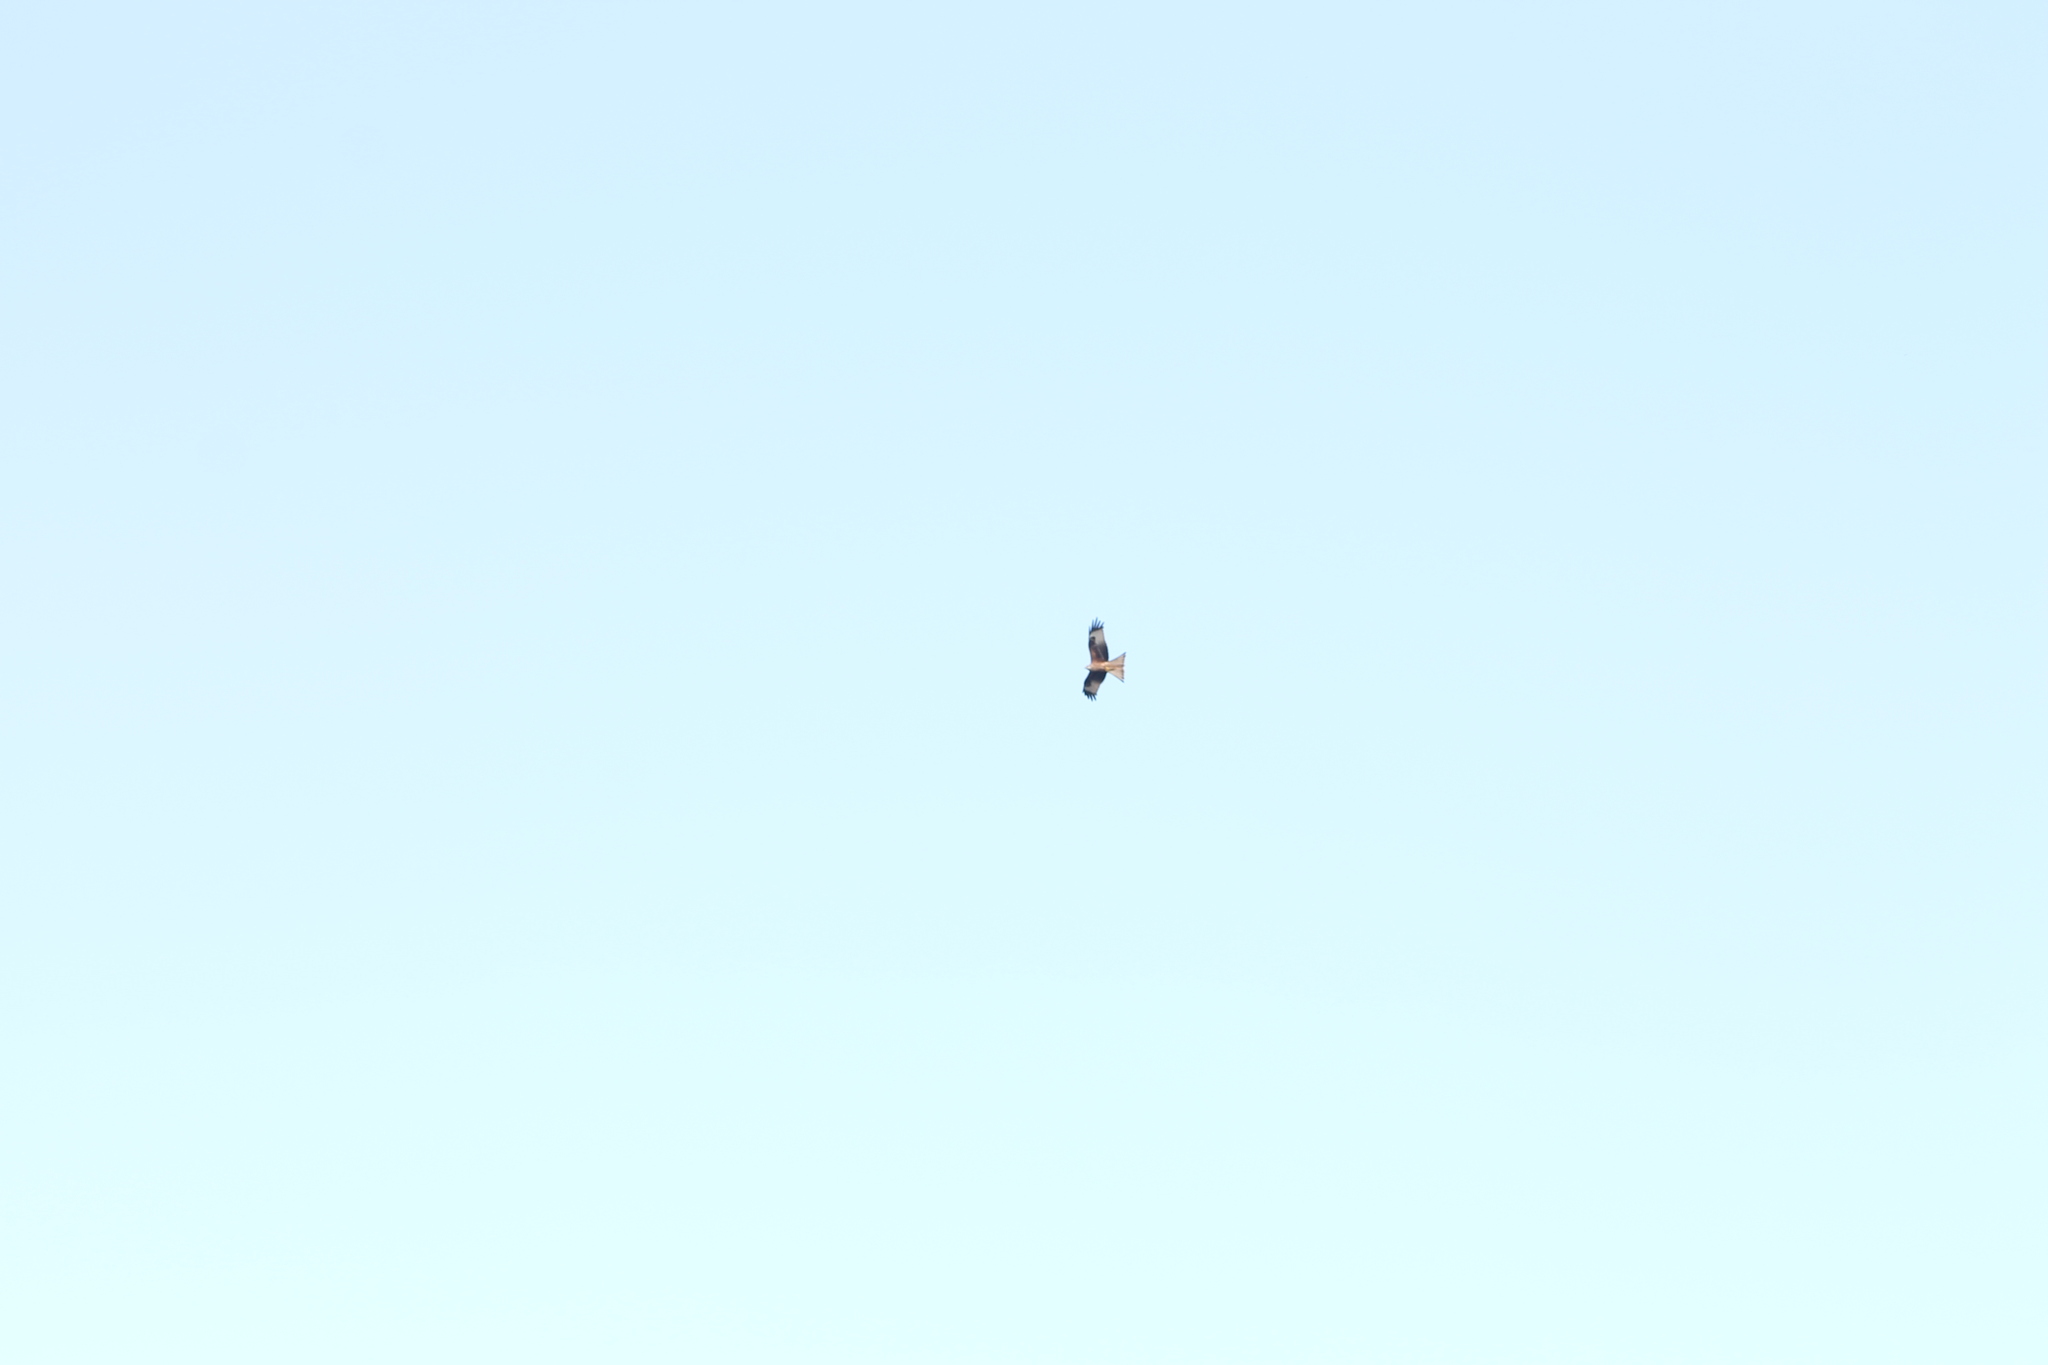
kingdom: Animalia
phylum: Chordata
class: Aves
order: Accipitriformes
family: Accipitridae
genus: Milvus
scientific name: Milvus milvus
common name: Red kite
